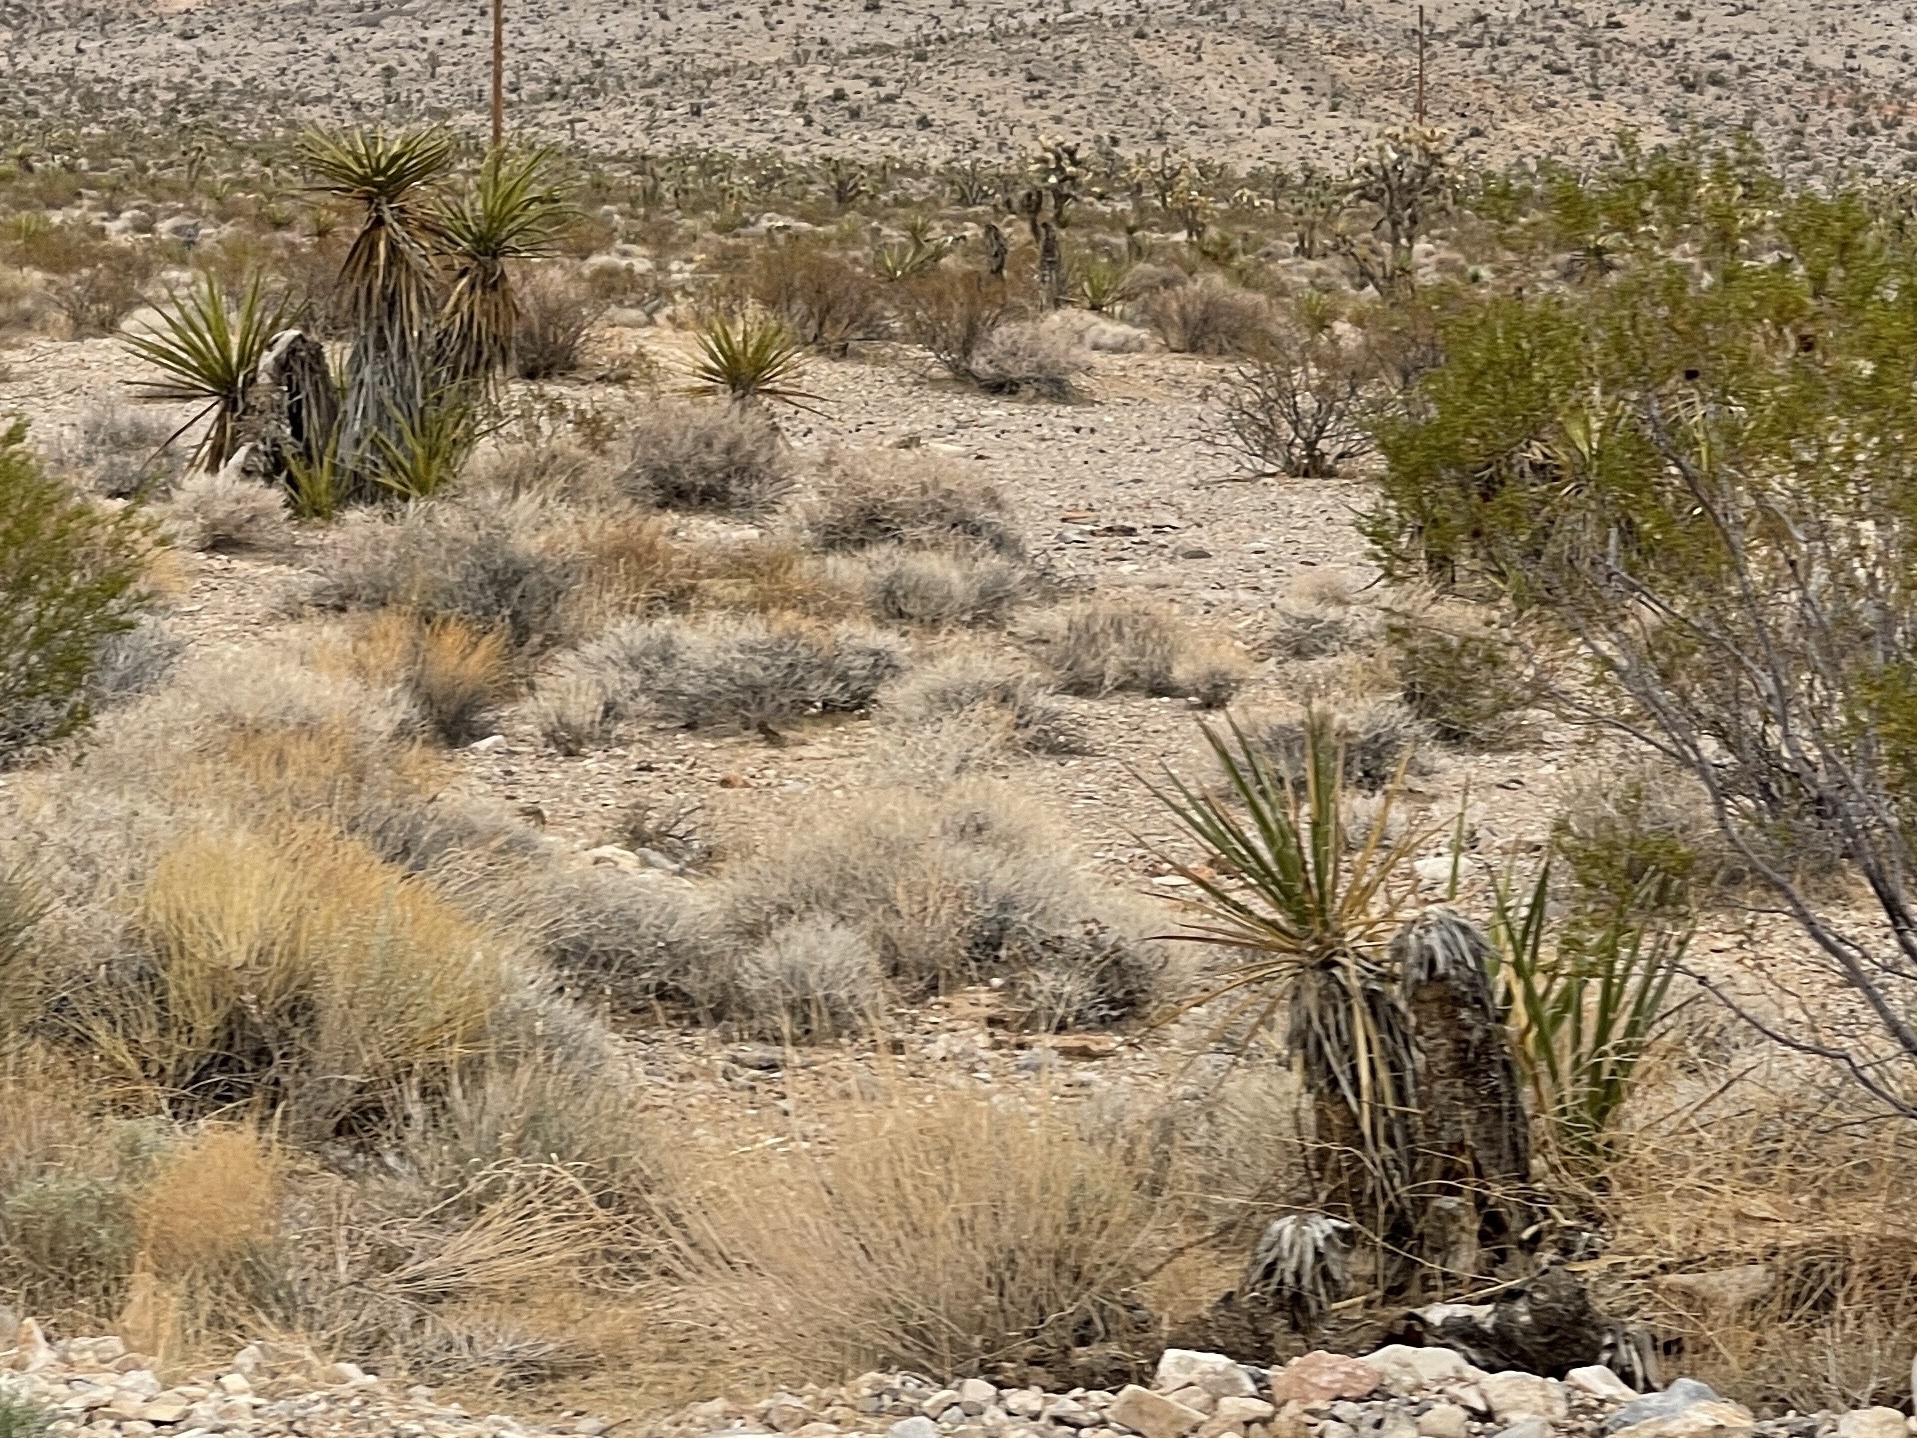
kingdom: Plantae
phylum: Tracheophyta
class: Liliopsida
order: Asparagales
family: Asparagaceae
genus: Yucca
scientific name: Yucca schidigera
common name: Mojave yucca
